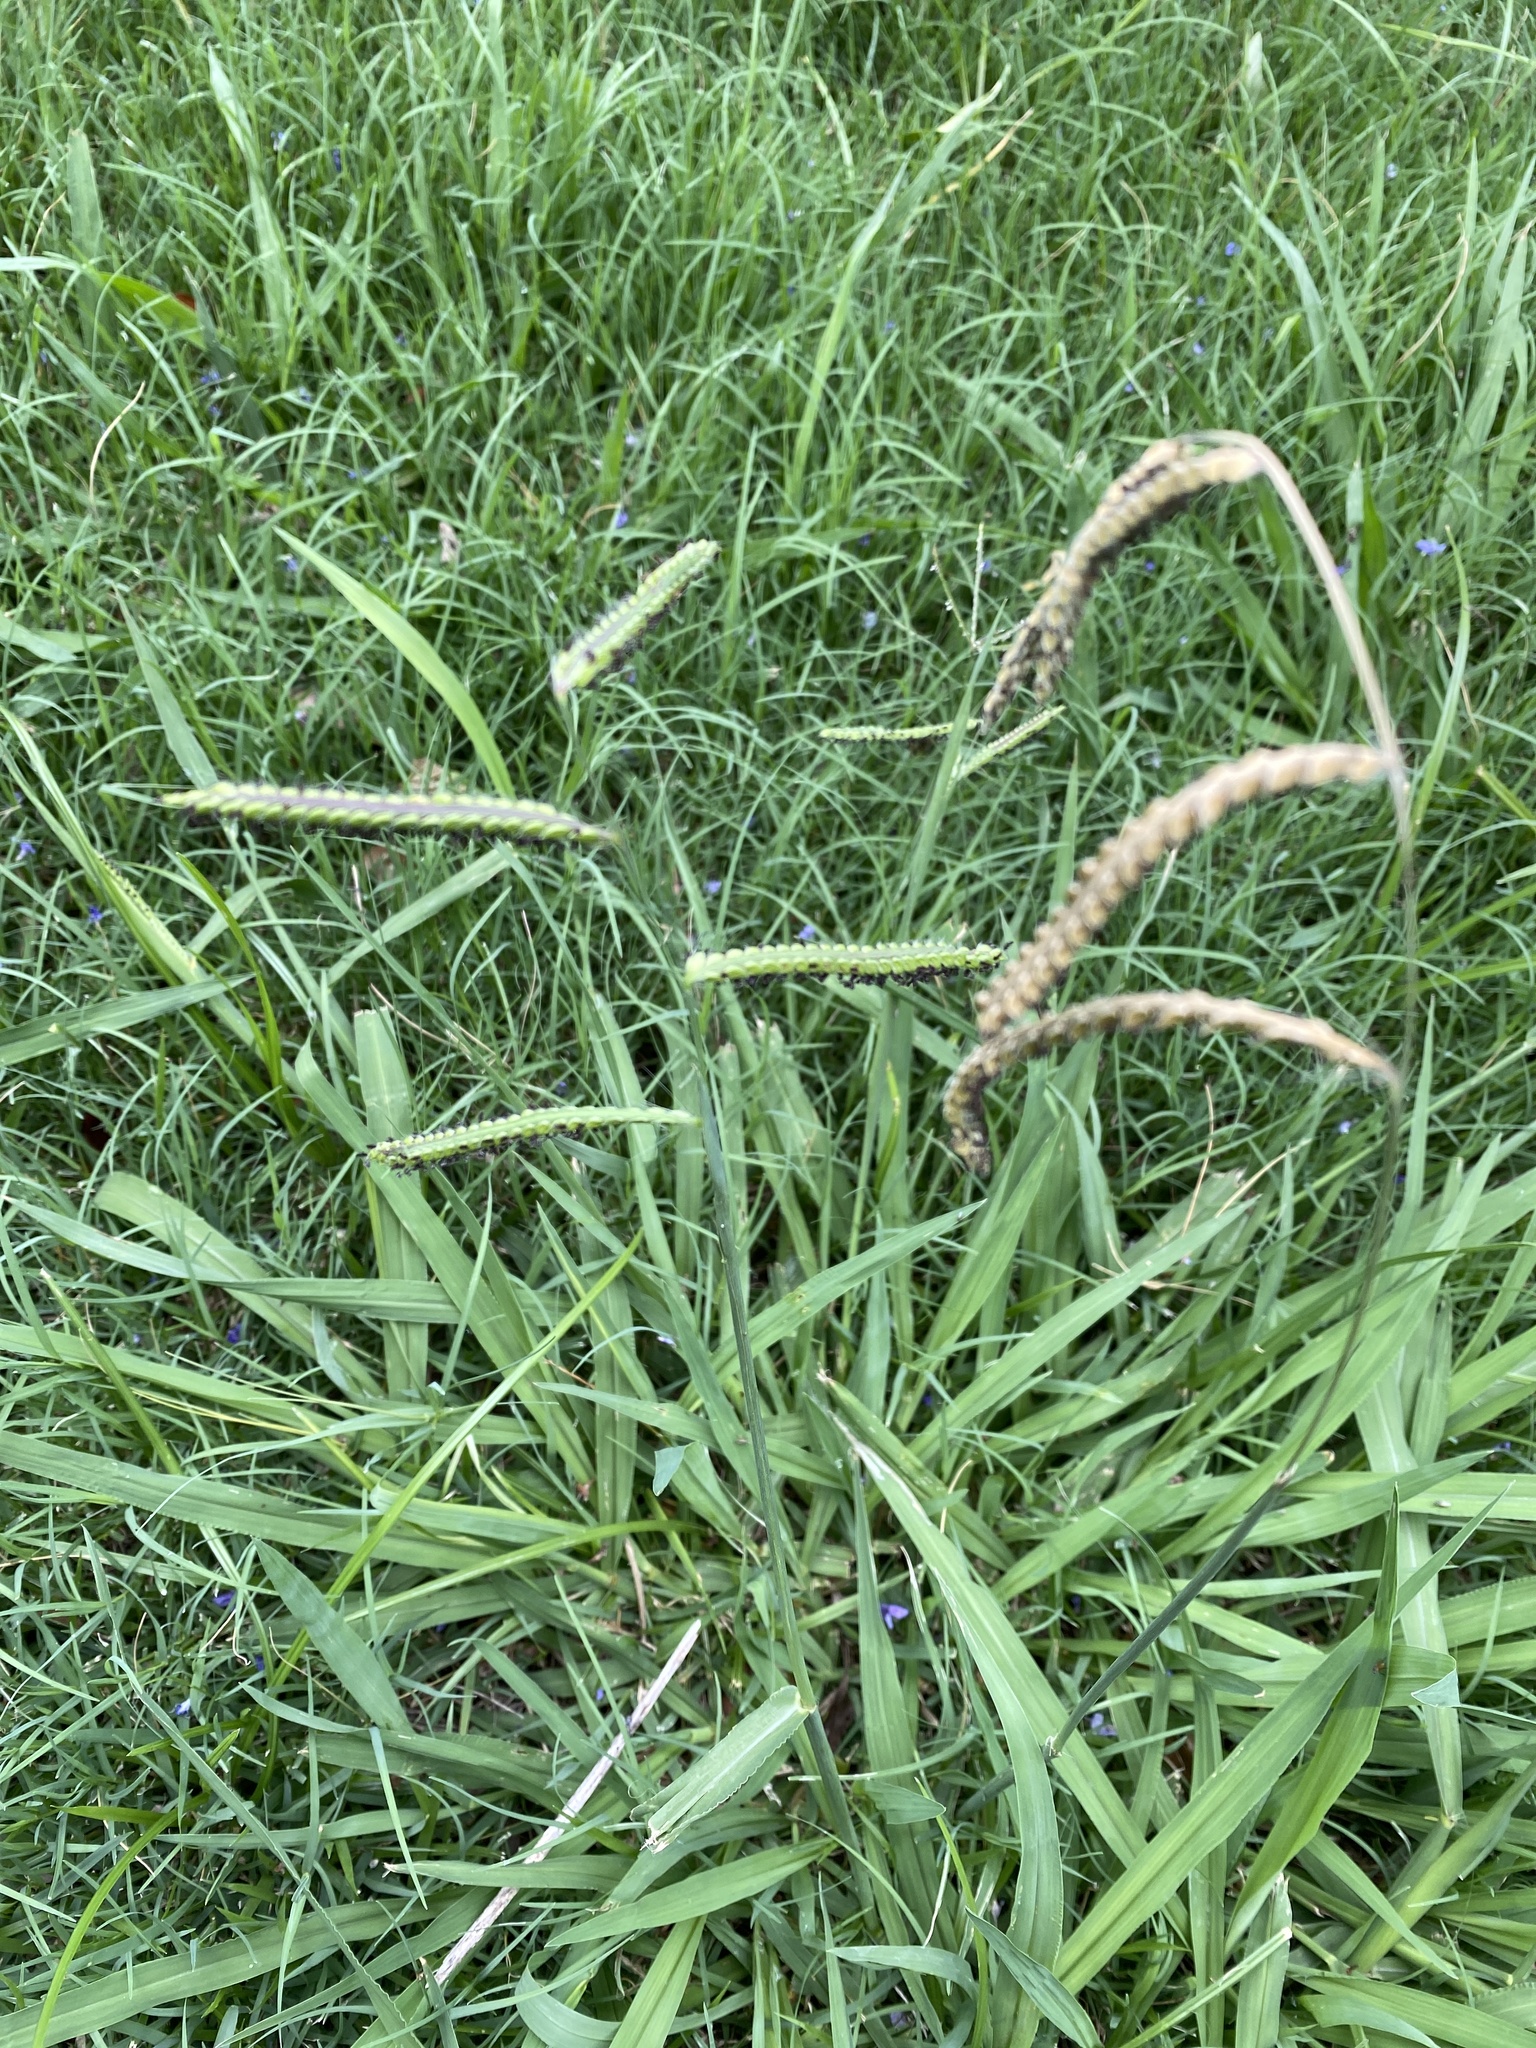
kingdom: Plantae
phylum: Tracheophyta
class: Liliopsida
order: Poales
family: Poaceae
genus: Paspalum
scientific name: Paspalum dilatatum
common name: Dallisgrass
